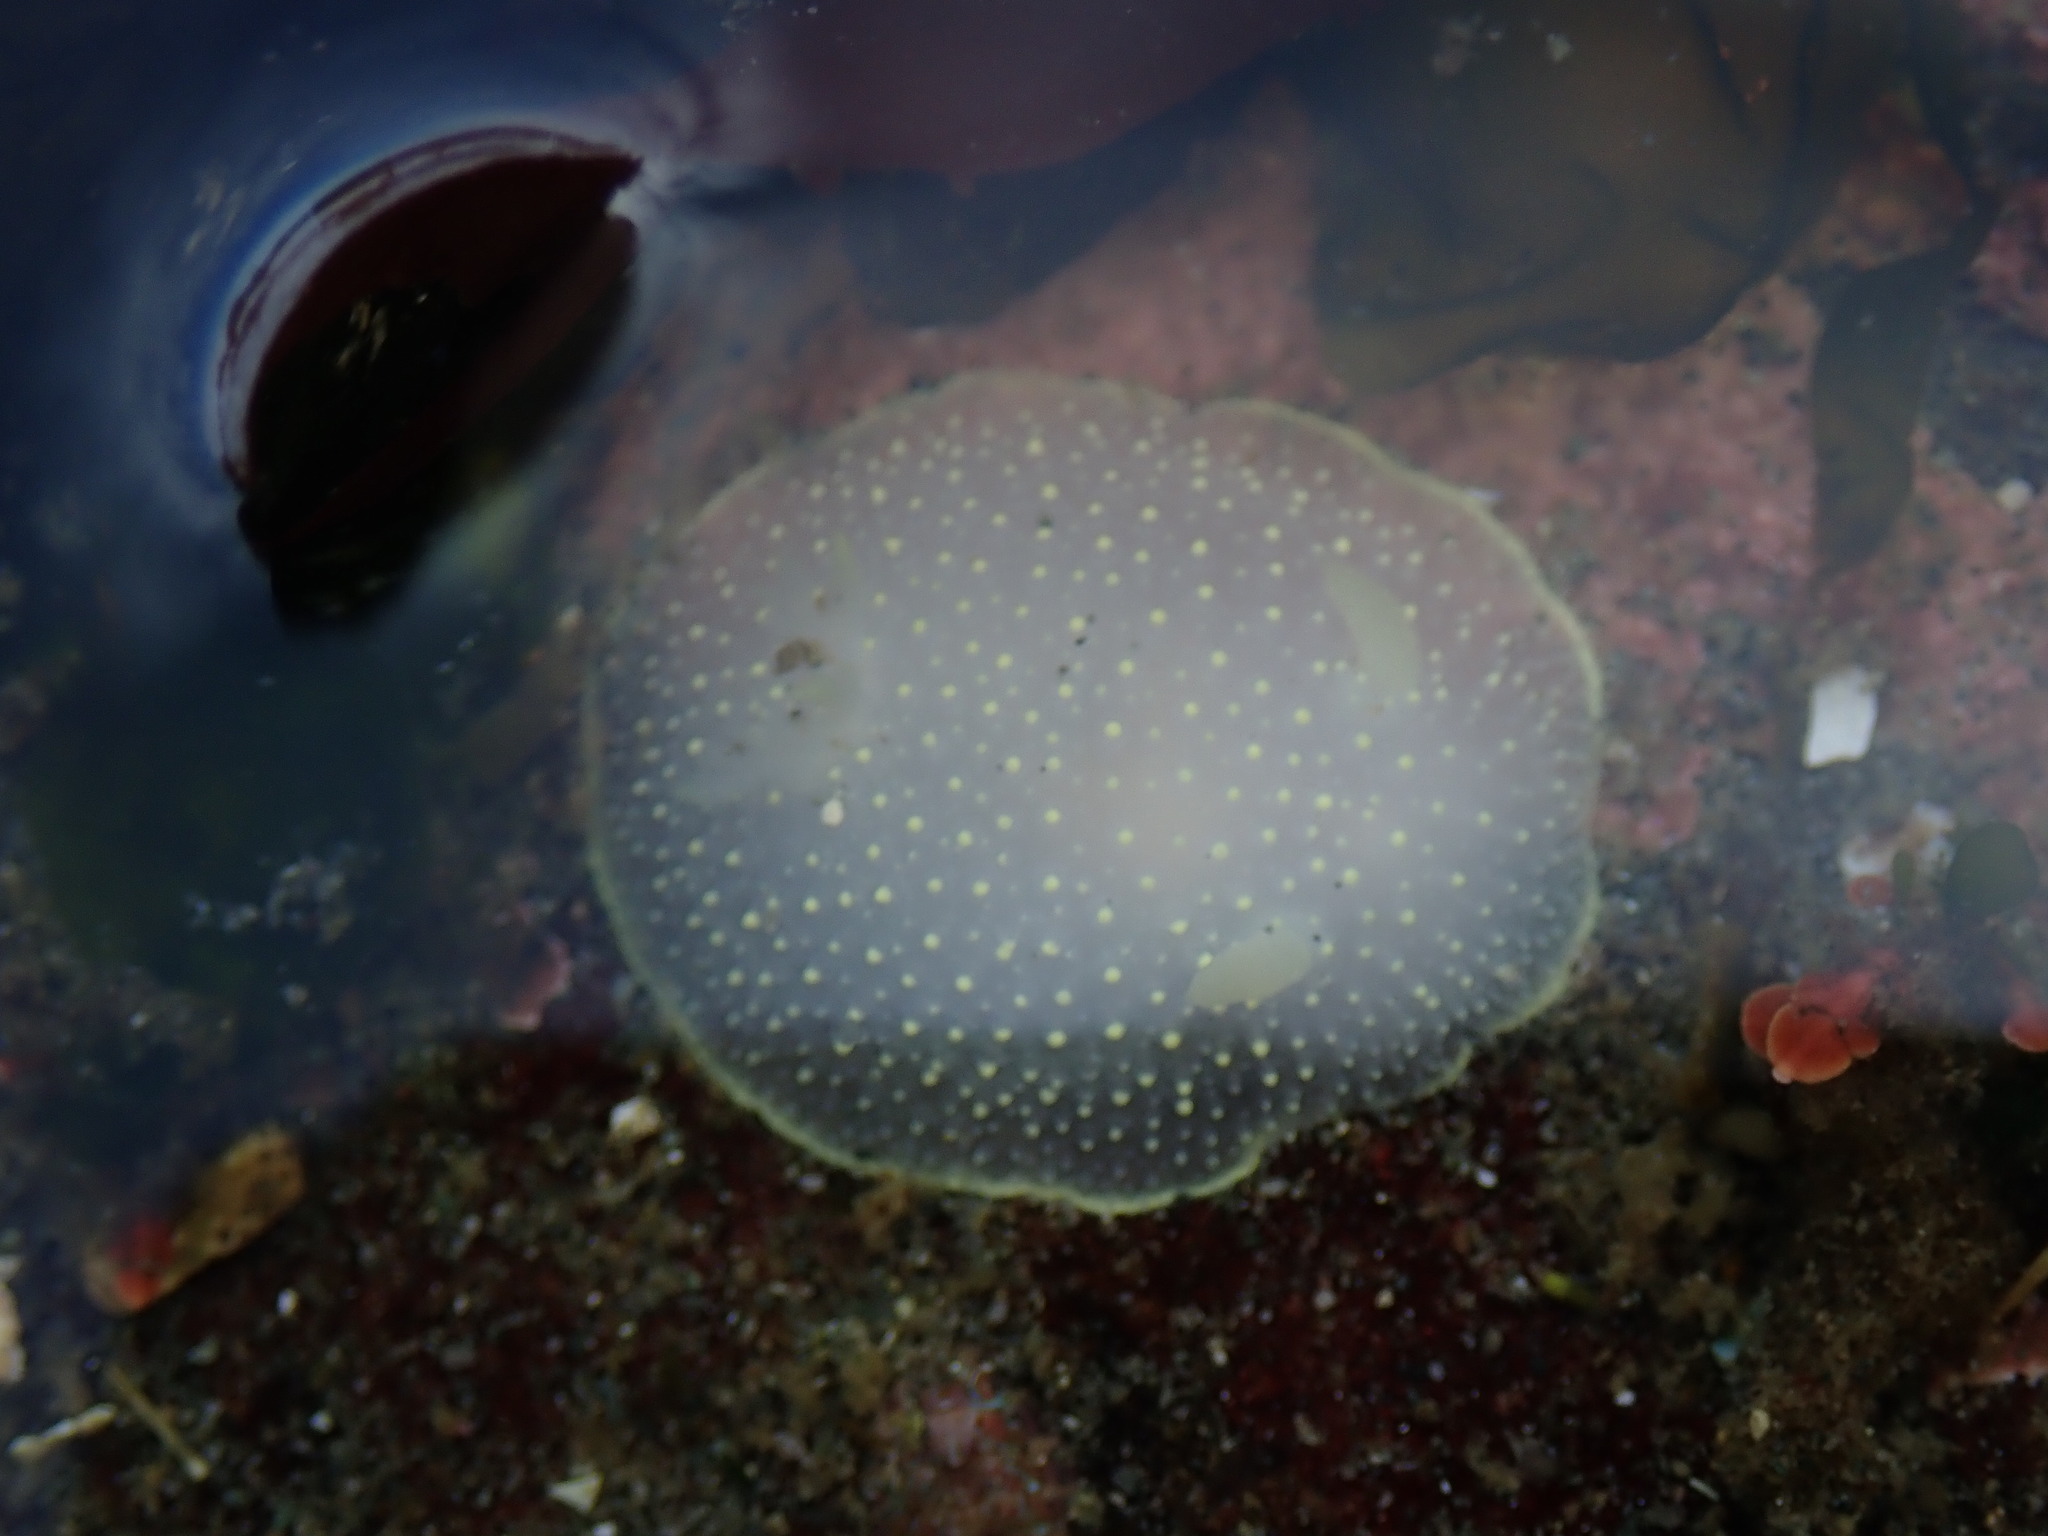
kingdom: Animalia
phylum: Mollusca
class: Gastropoda
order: Nudibranchia
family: Onchidorididae
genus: Acanthodoris
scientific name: Acanthodoris hudsoni
